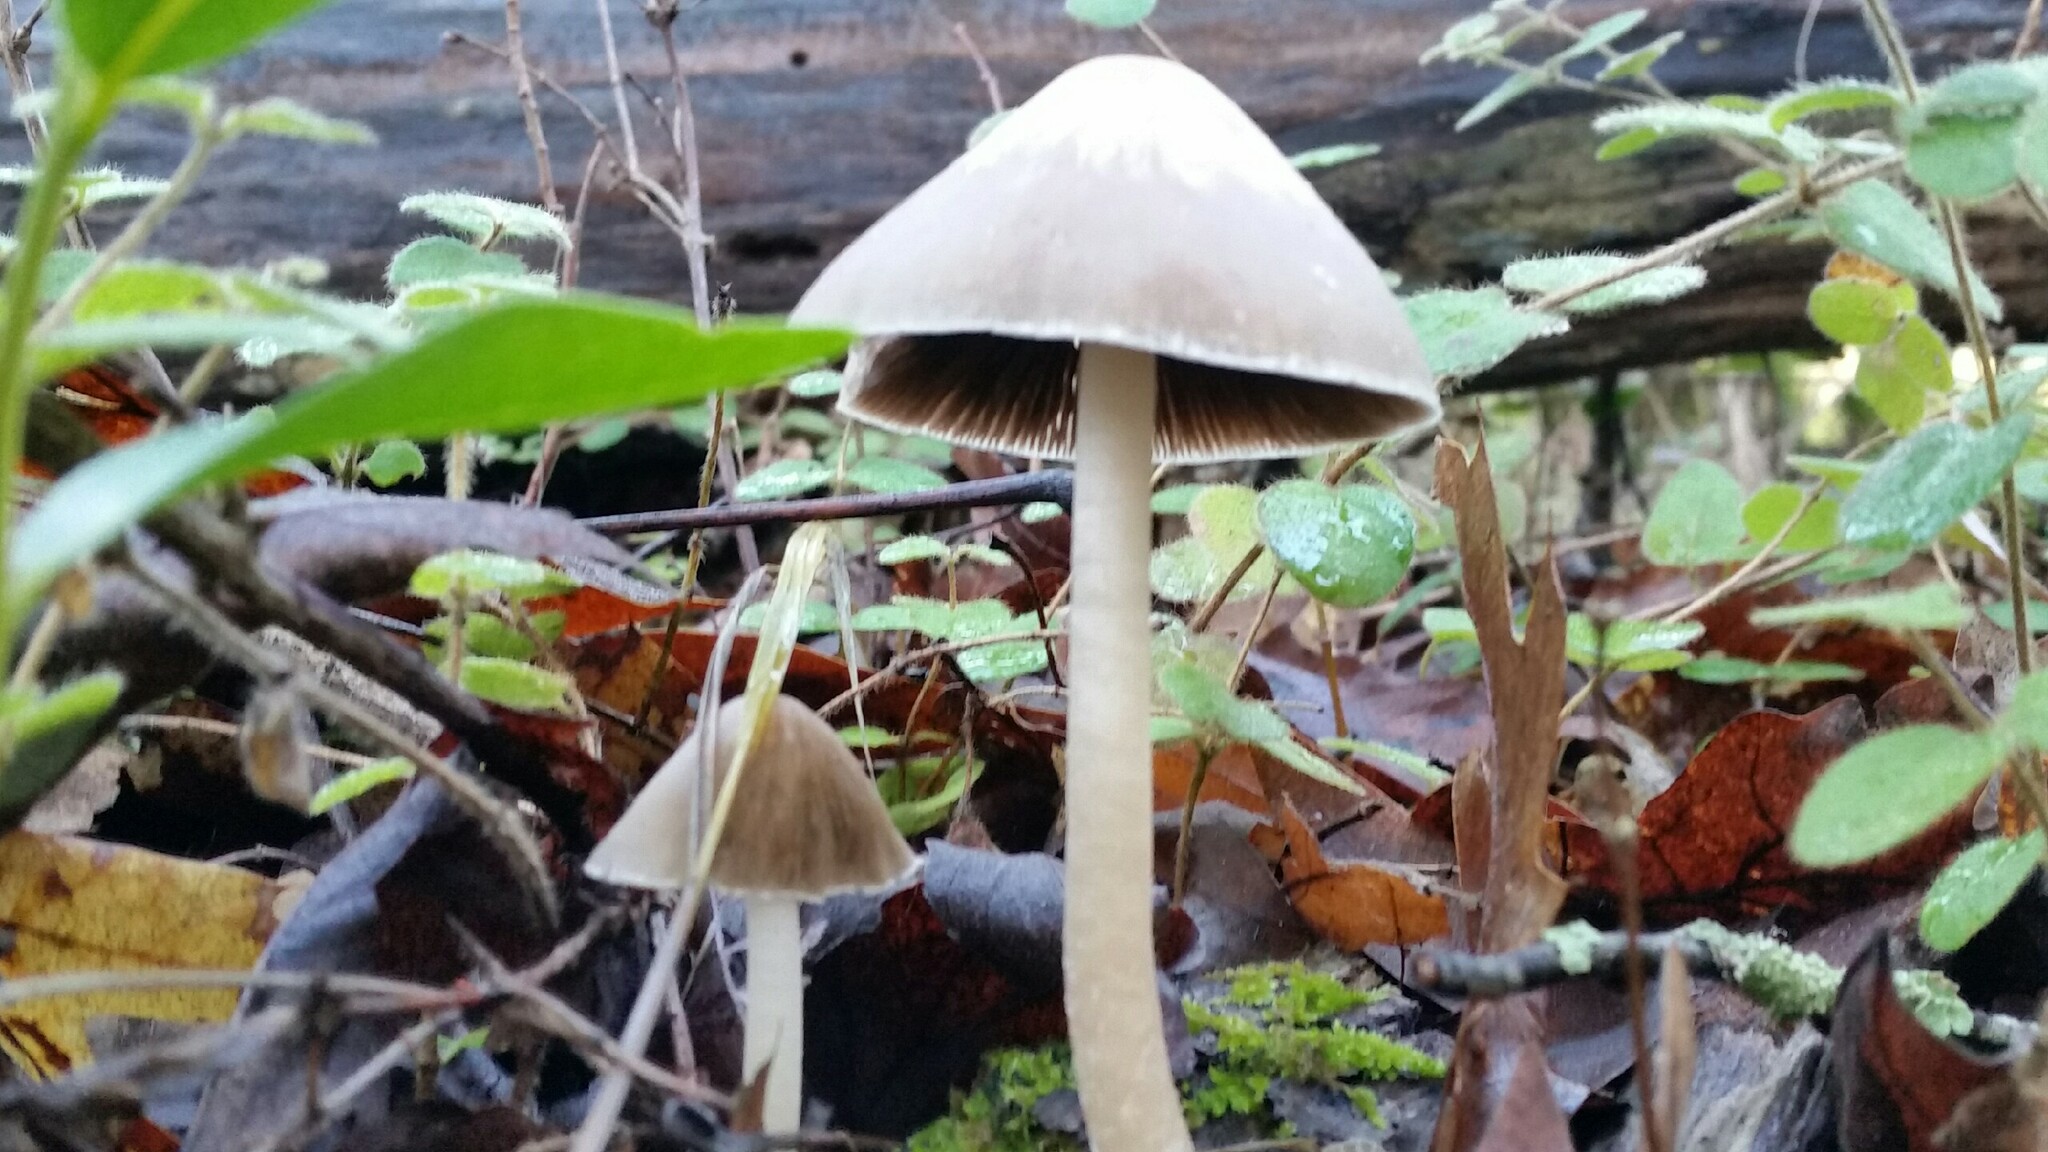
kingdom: Fungi
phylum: Basidiomycota
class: Agaricomycetes
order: Agaricales
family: Psathyrellaceae
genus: Psathyrella
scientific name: Psathyrella longipes
